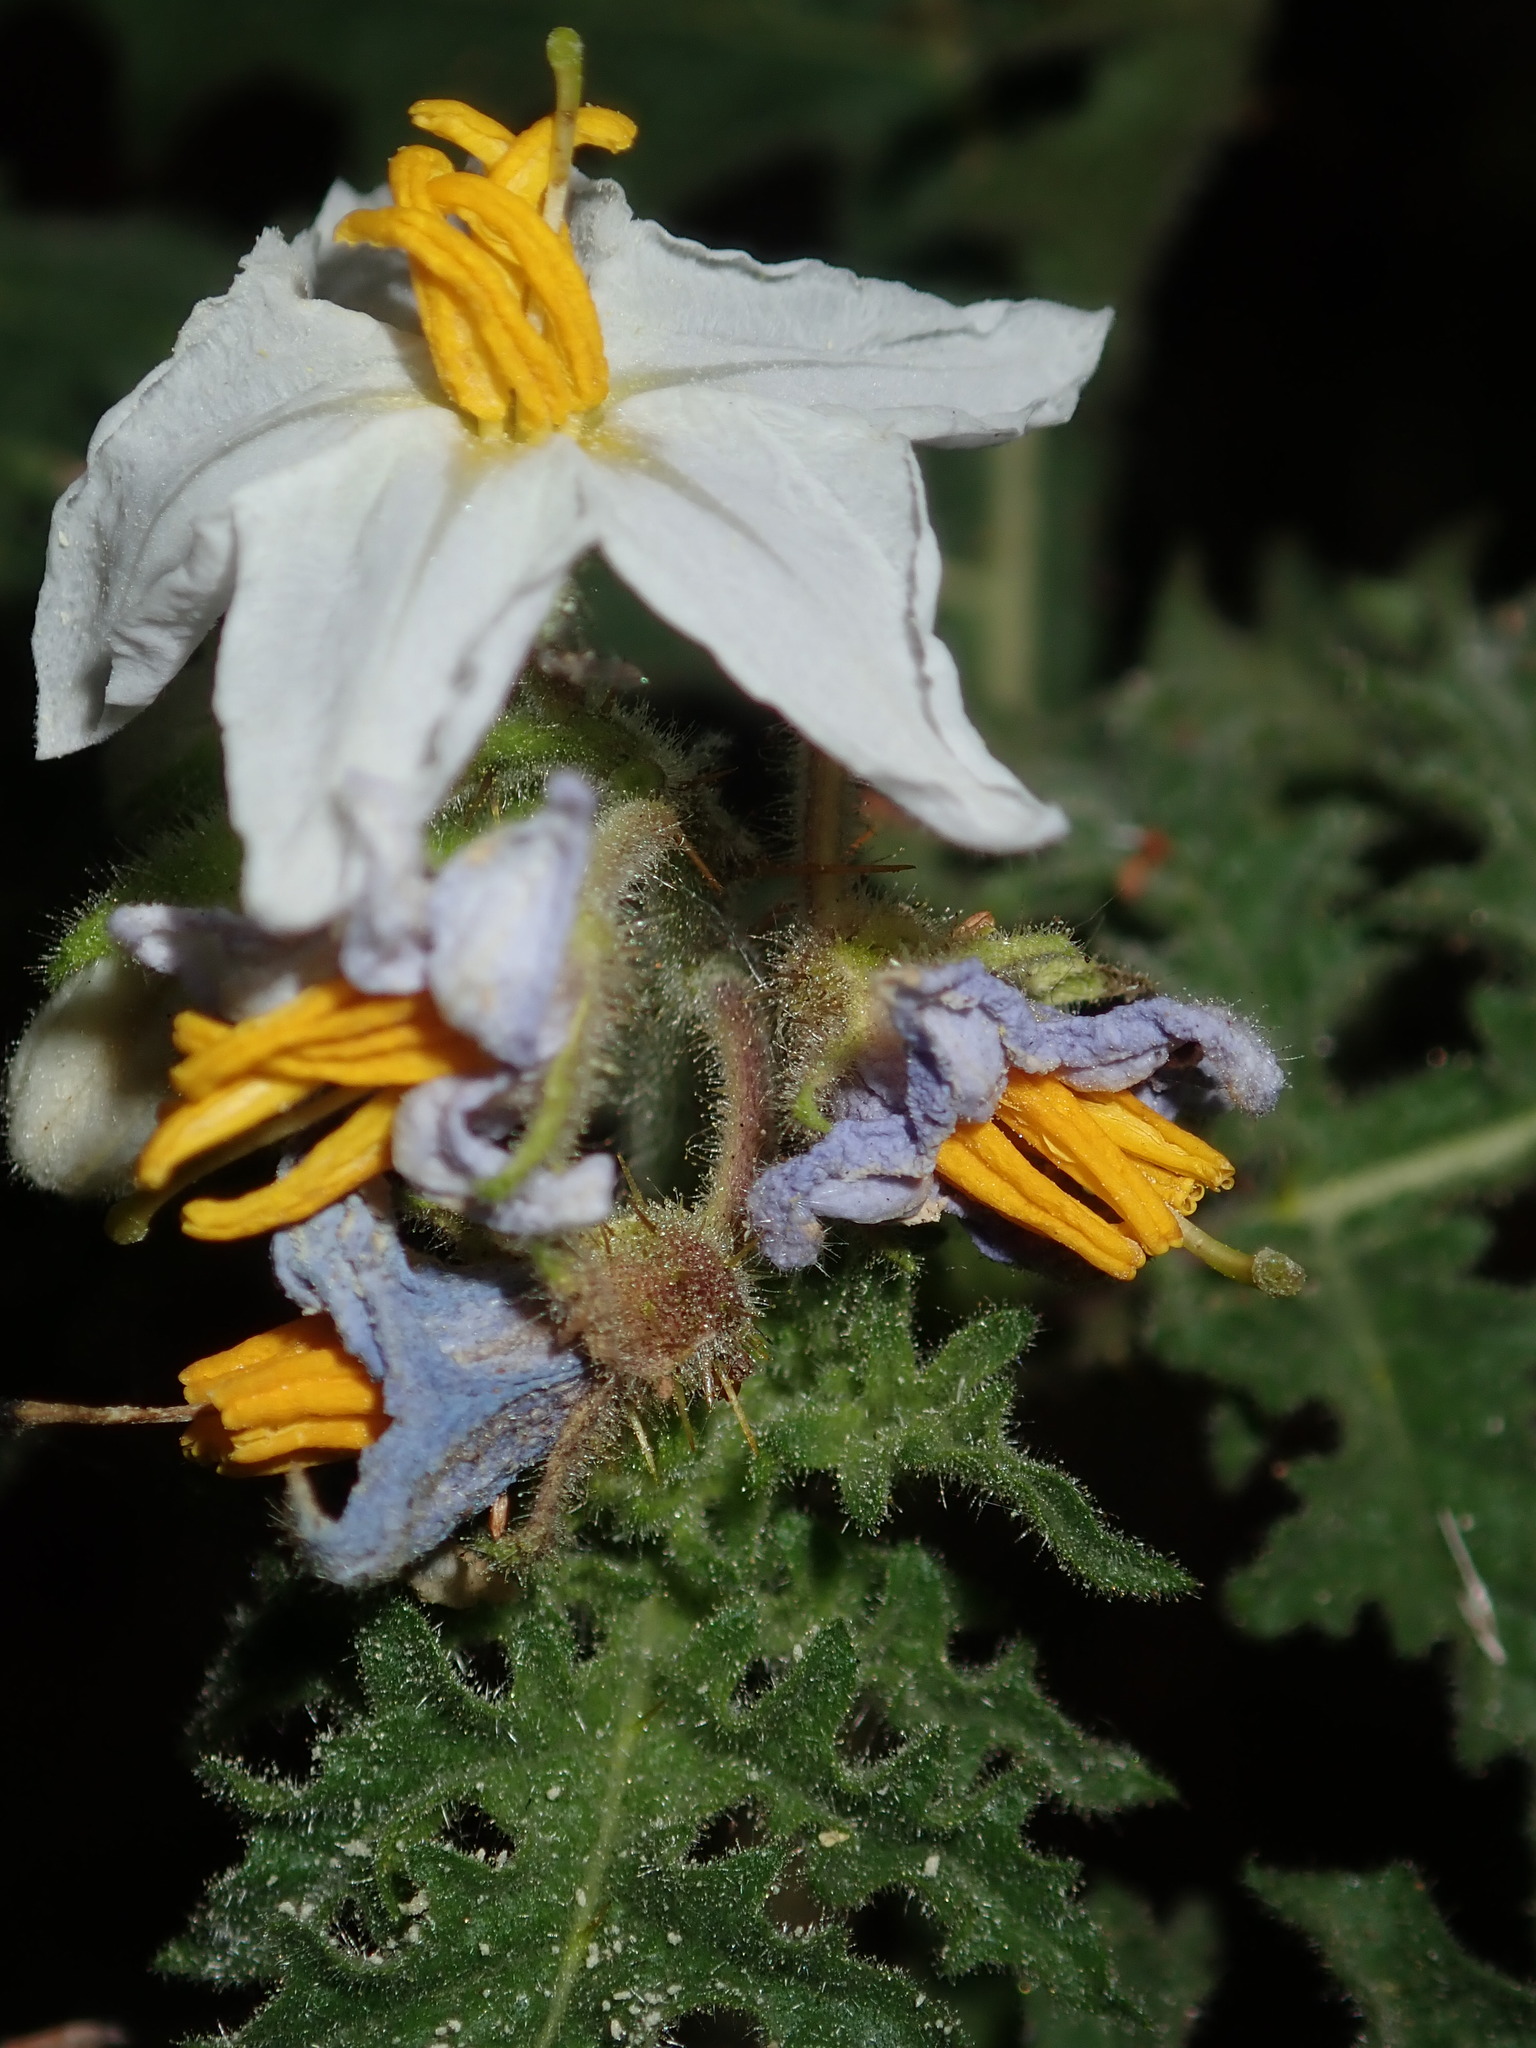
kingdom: Plantae
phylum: Tracheophyta
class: Magnoliopsida
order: Solanales
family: Solanaceae
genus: Solanum
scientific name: Solanum sisymbriifolium
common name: Red buffalo-bur
